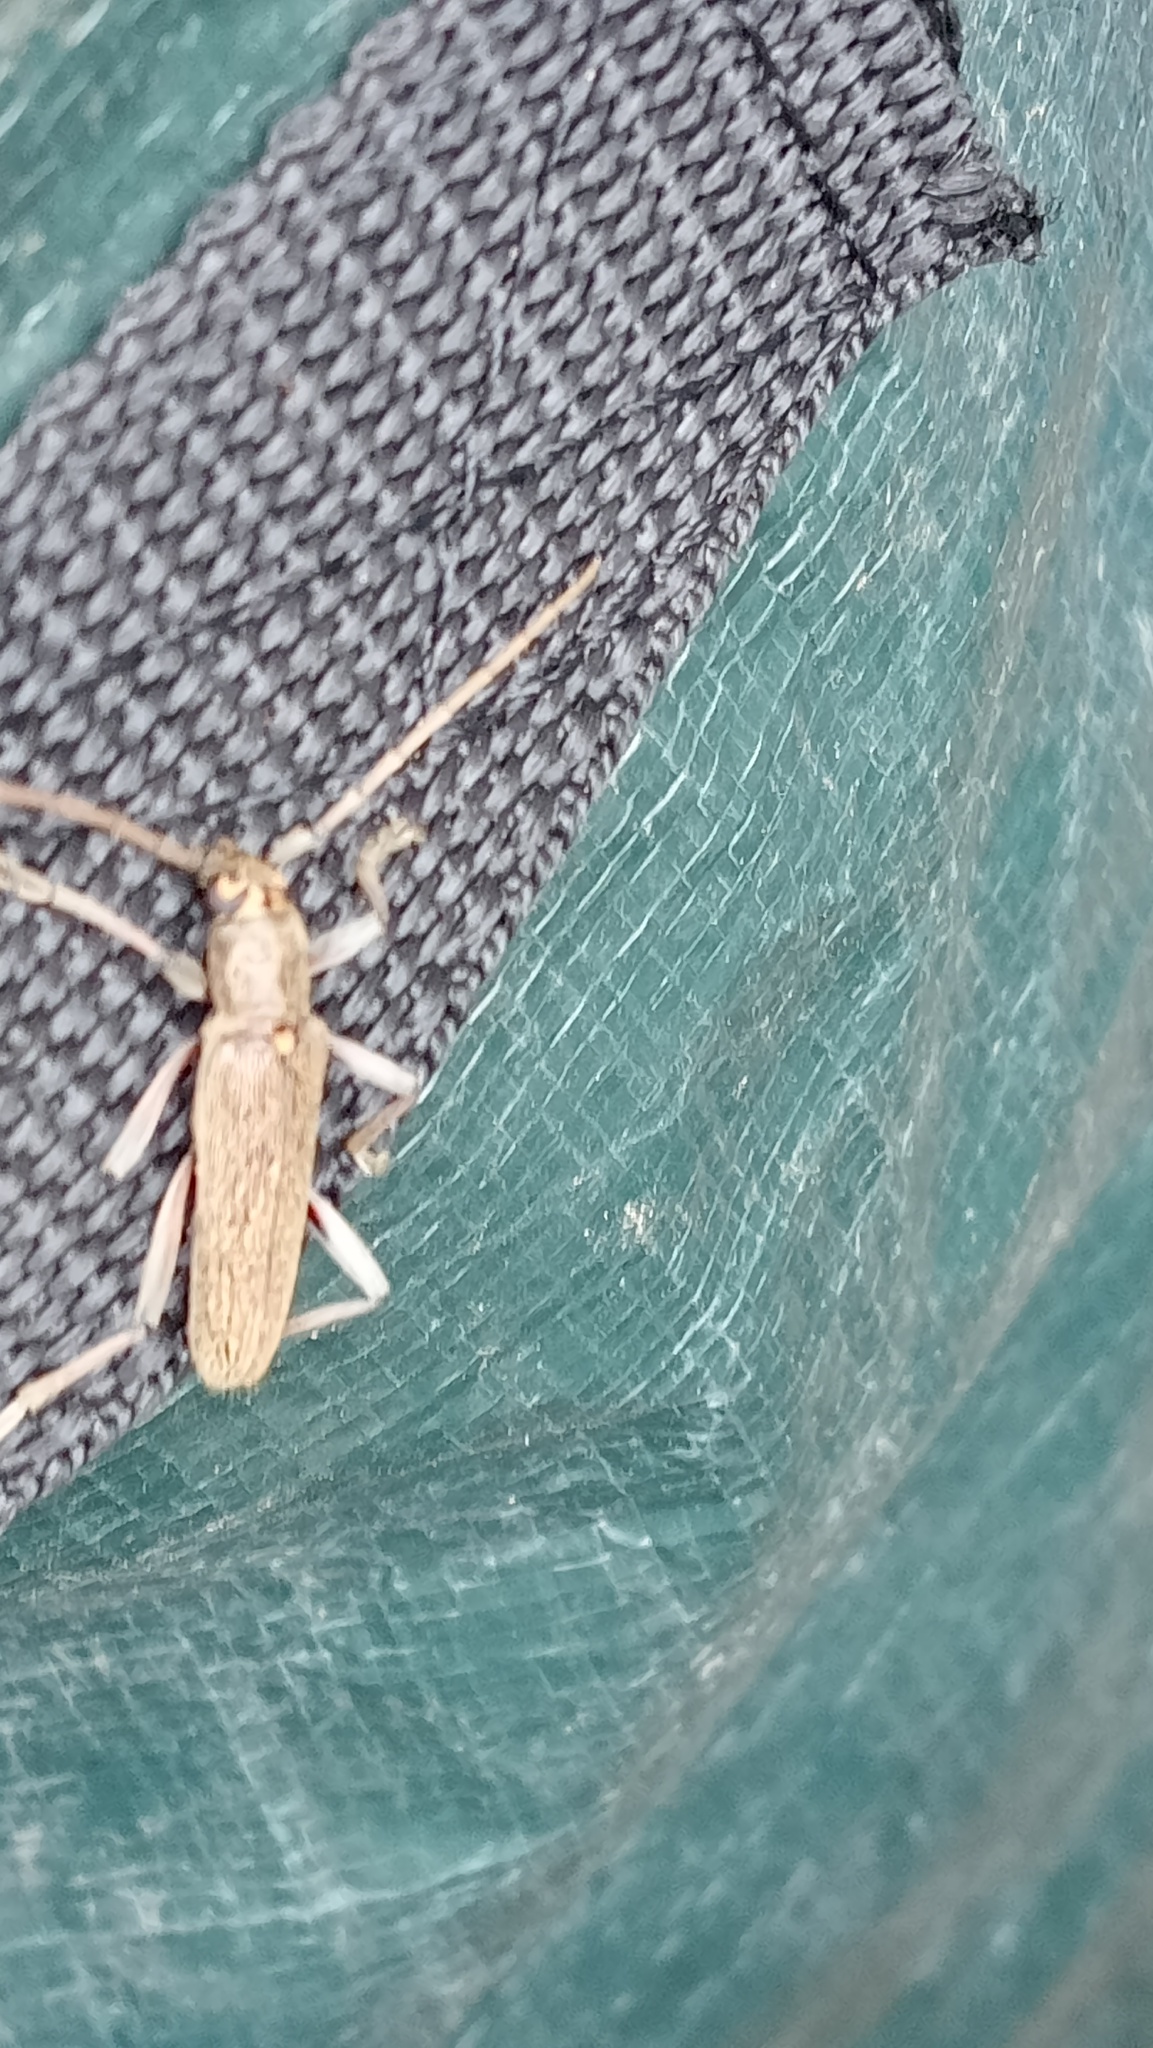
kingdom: Animalia
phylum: Arthropoda
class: Insecta
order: Coleoptera
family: Cerambycidae
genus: Oemona
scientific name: Oemona hirta
